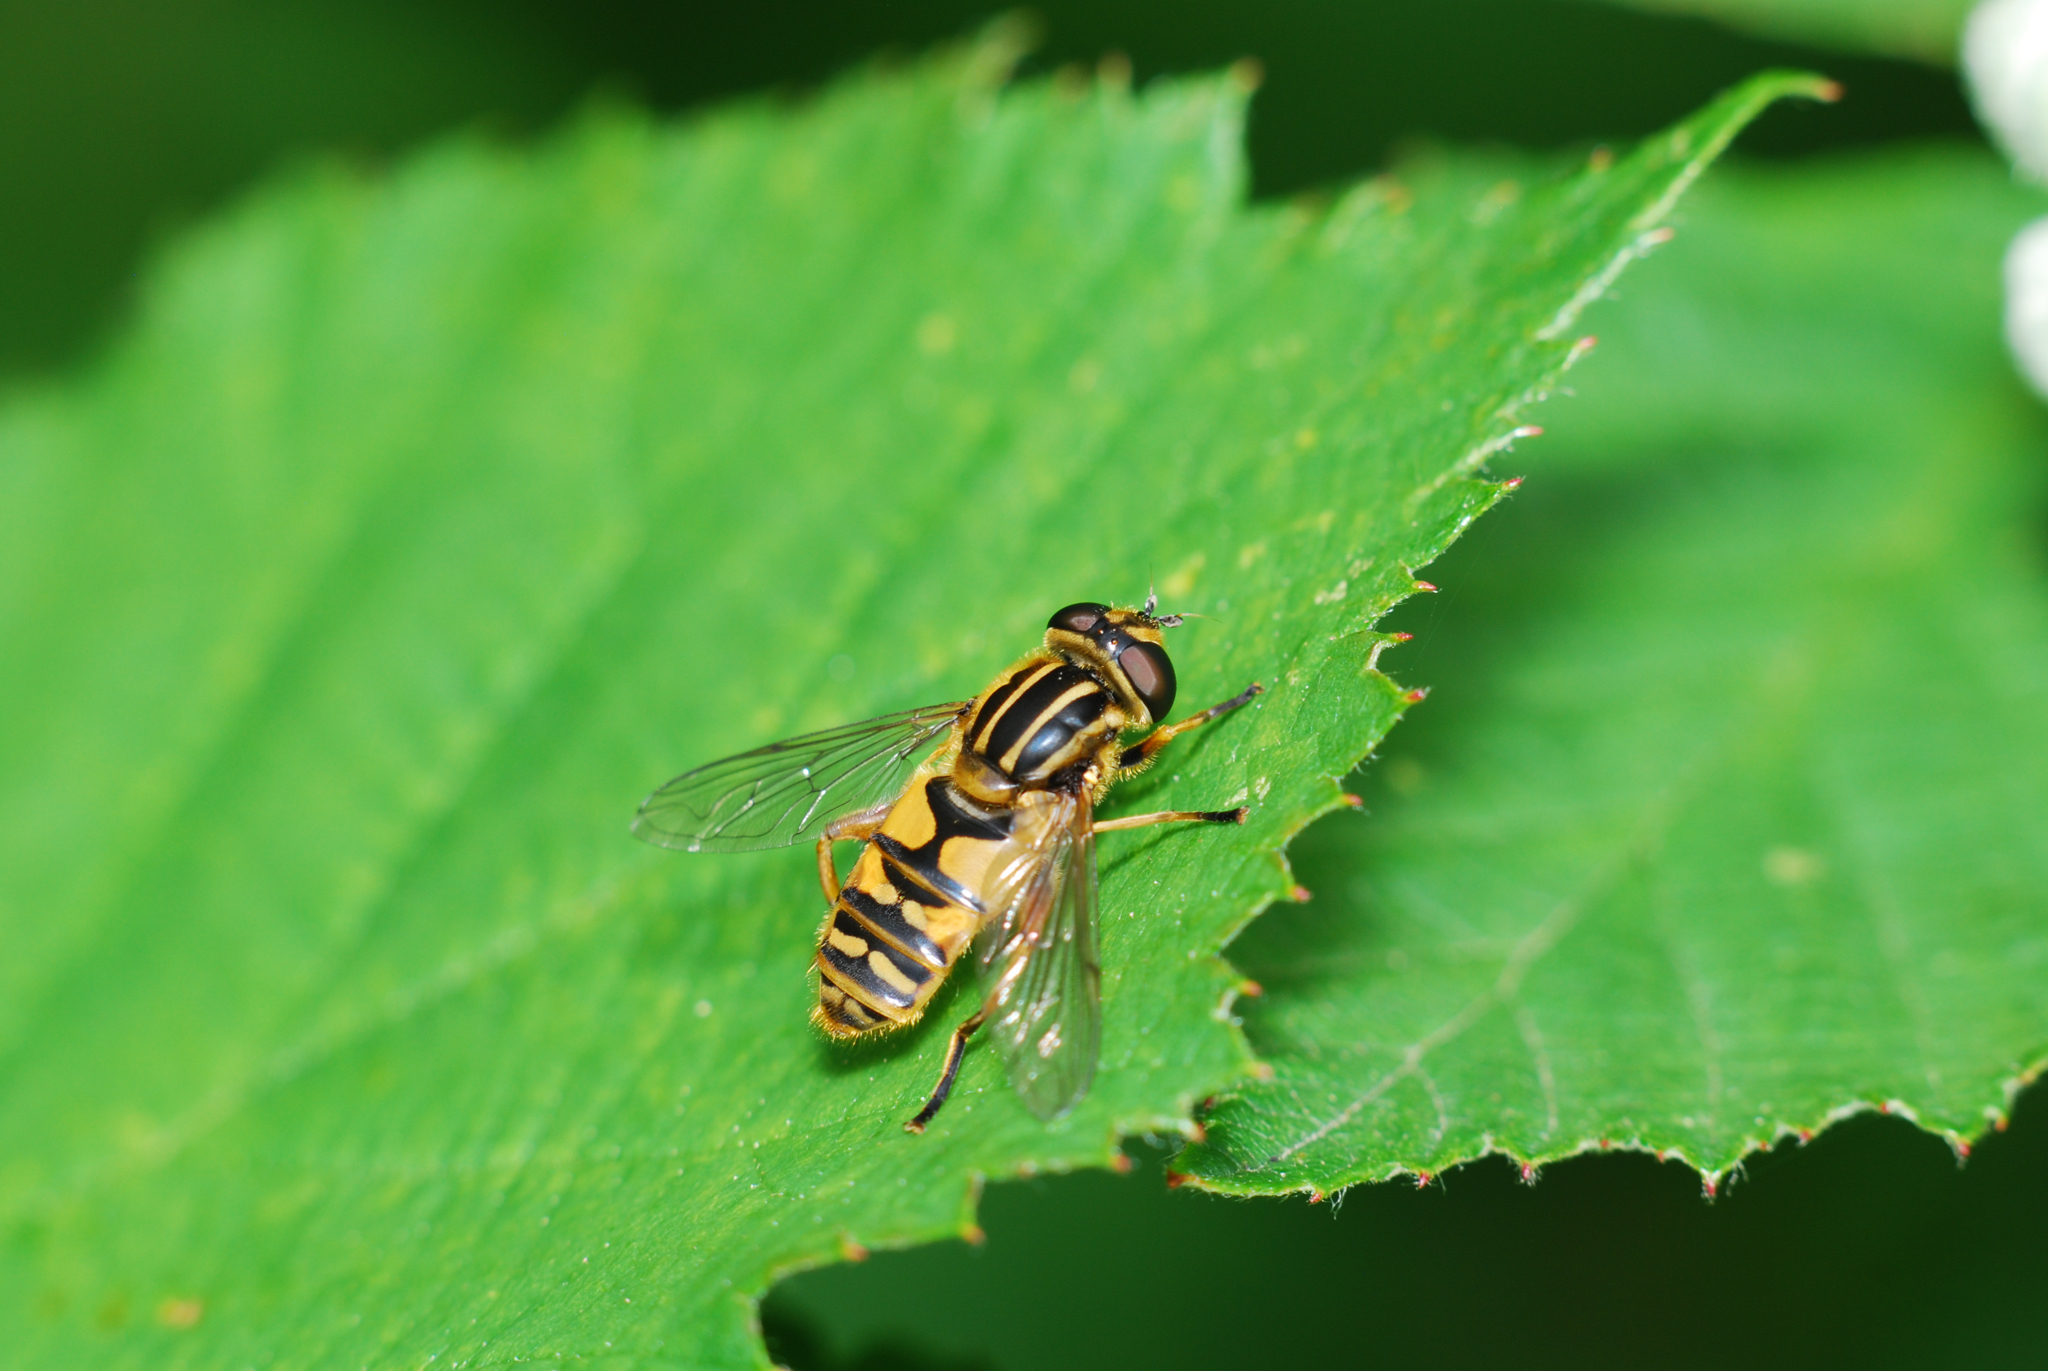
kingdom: Animalia
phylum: Arthropoda
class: Insecta
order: Diptera
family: Syrphidae
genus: Helophilus
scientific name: Helophilus pendulus
